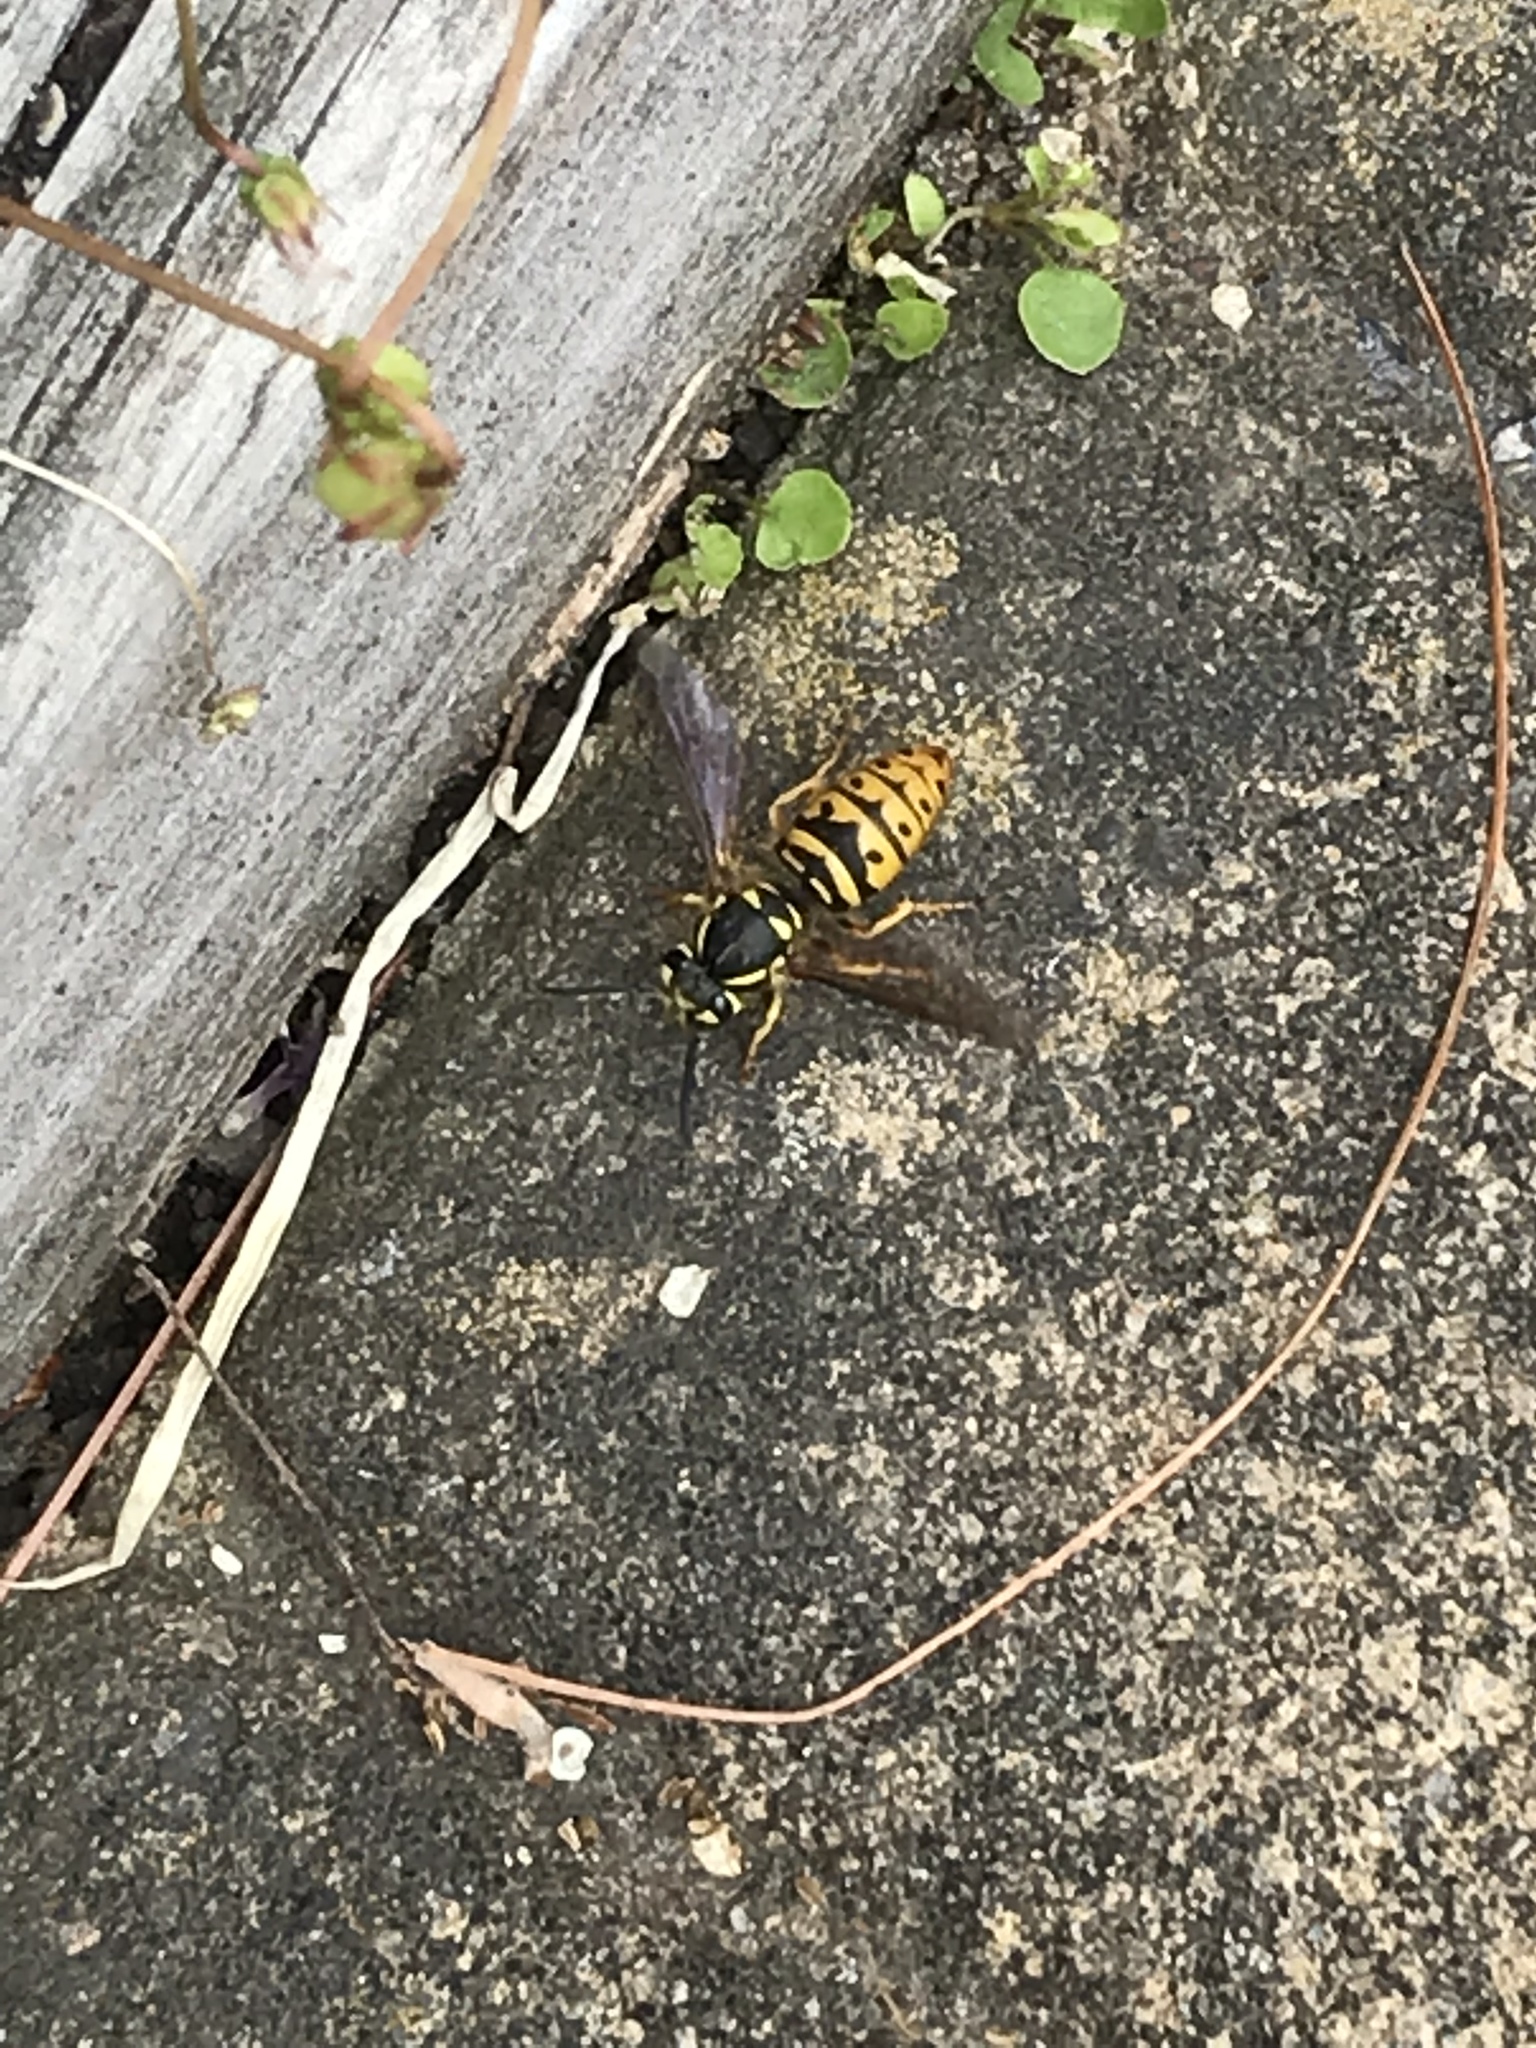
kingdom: Animalia
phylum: Arthropoda
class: Insecta
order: Hymenoptera
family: Vespidae
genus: Vespula
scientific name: Vespula maculifrons
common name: Eastern yellowjacket
